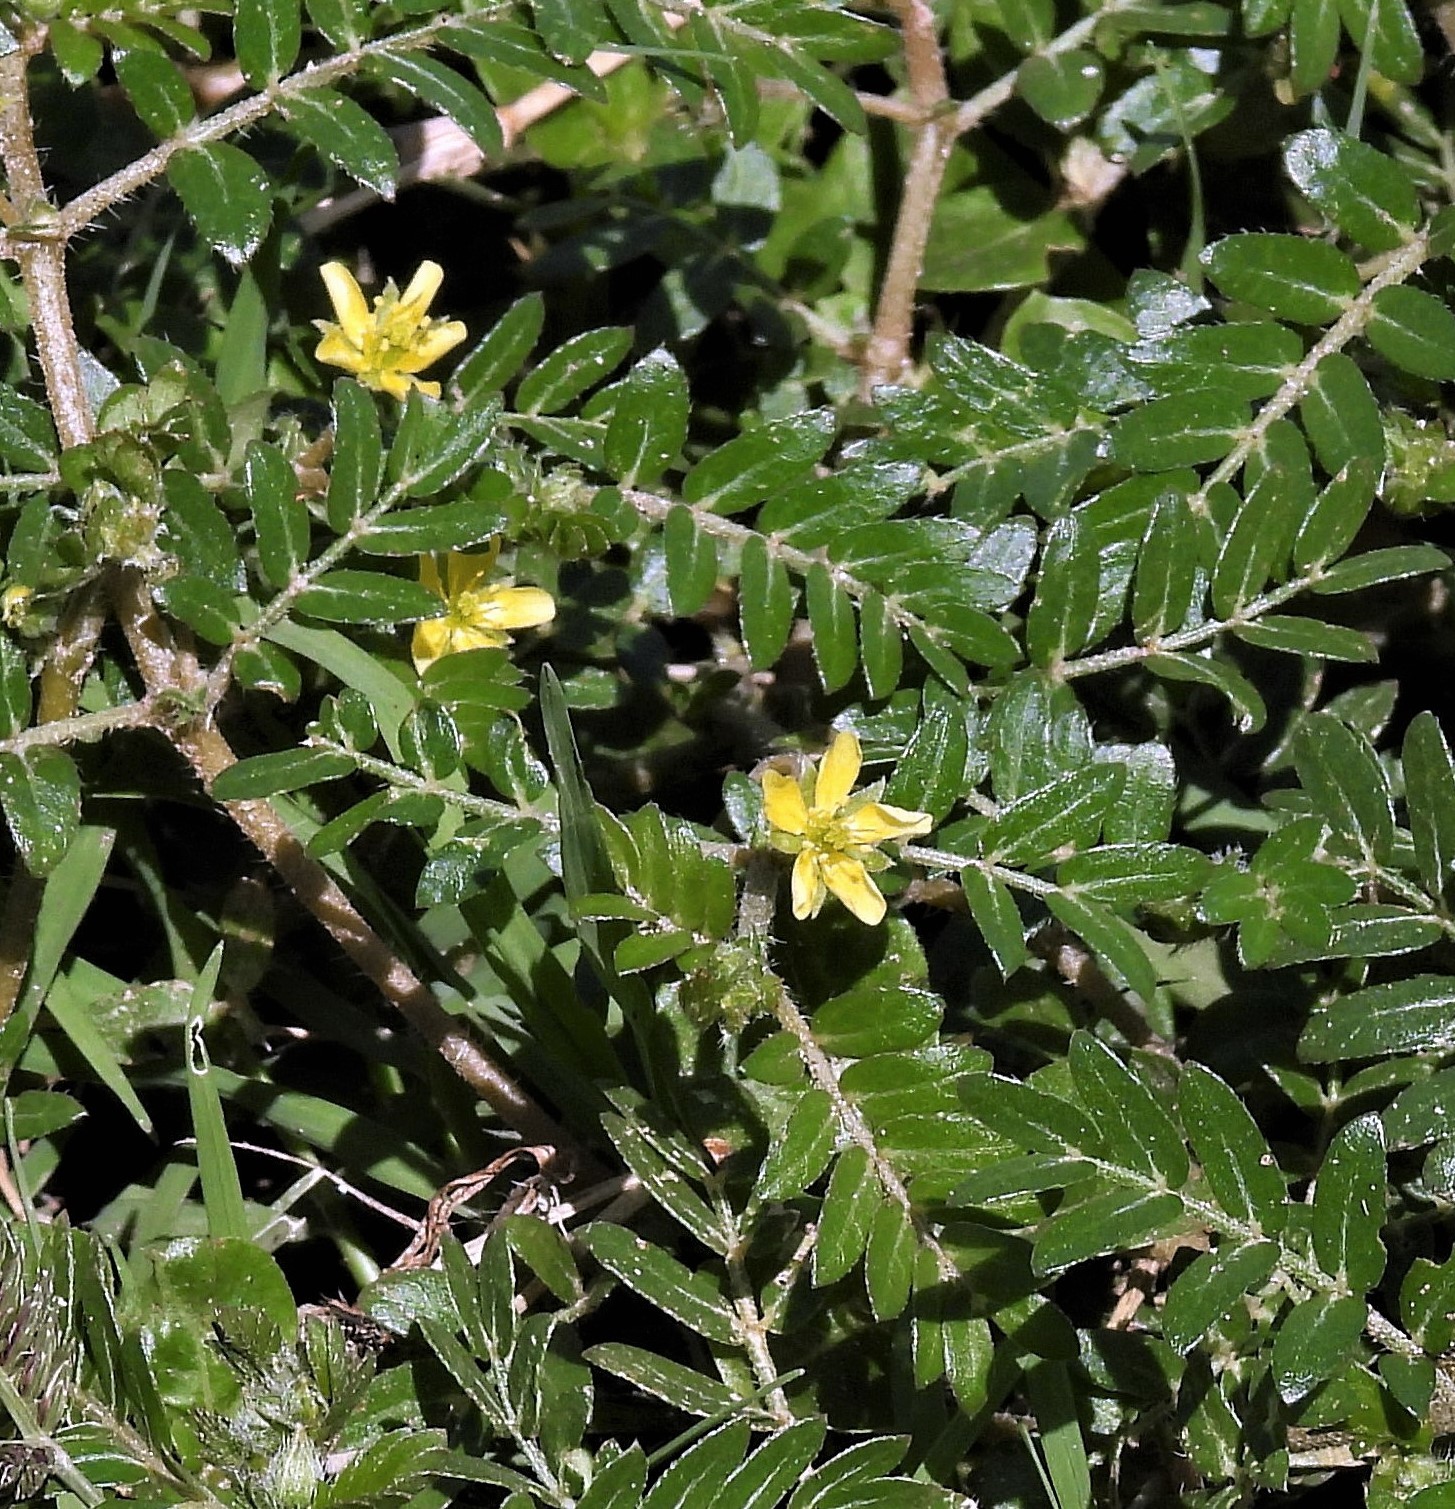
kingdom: Plantae
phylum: Tracheophyta
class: Magnoliopsida
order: Zygophyllales
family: Zygophyllaceae
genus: Tribulus
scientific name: Tribulus terrestris
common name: Puncturevine
